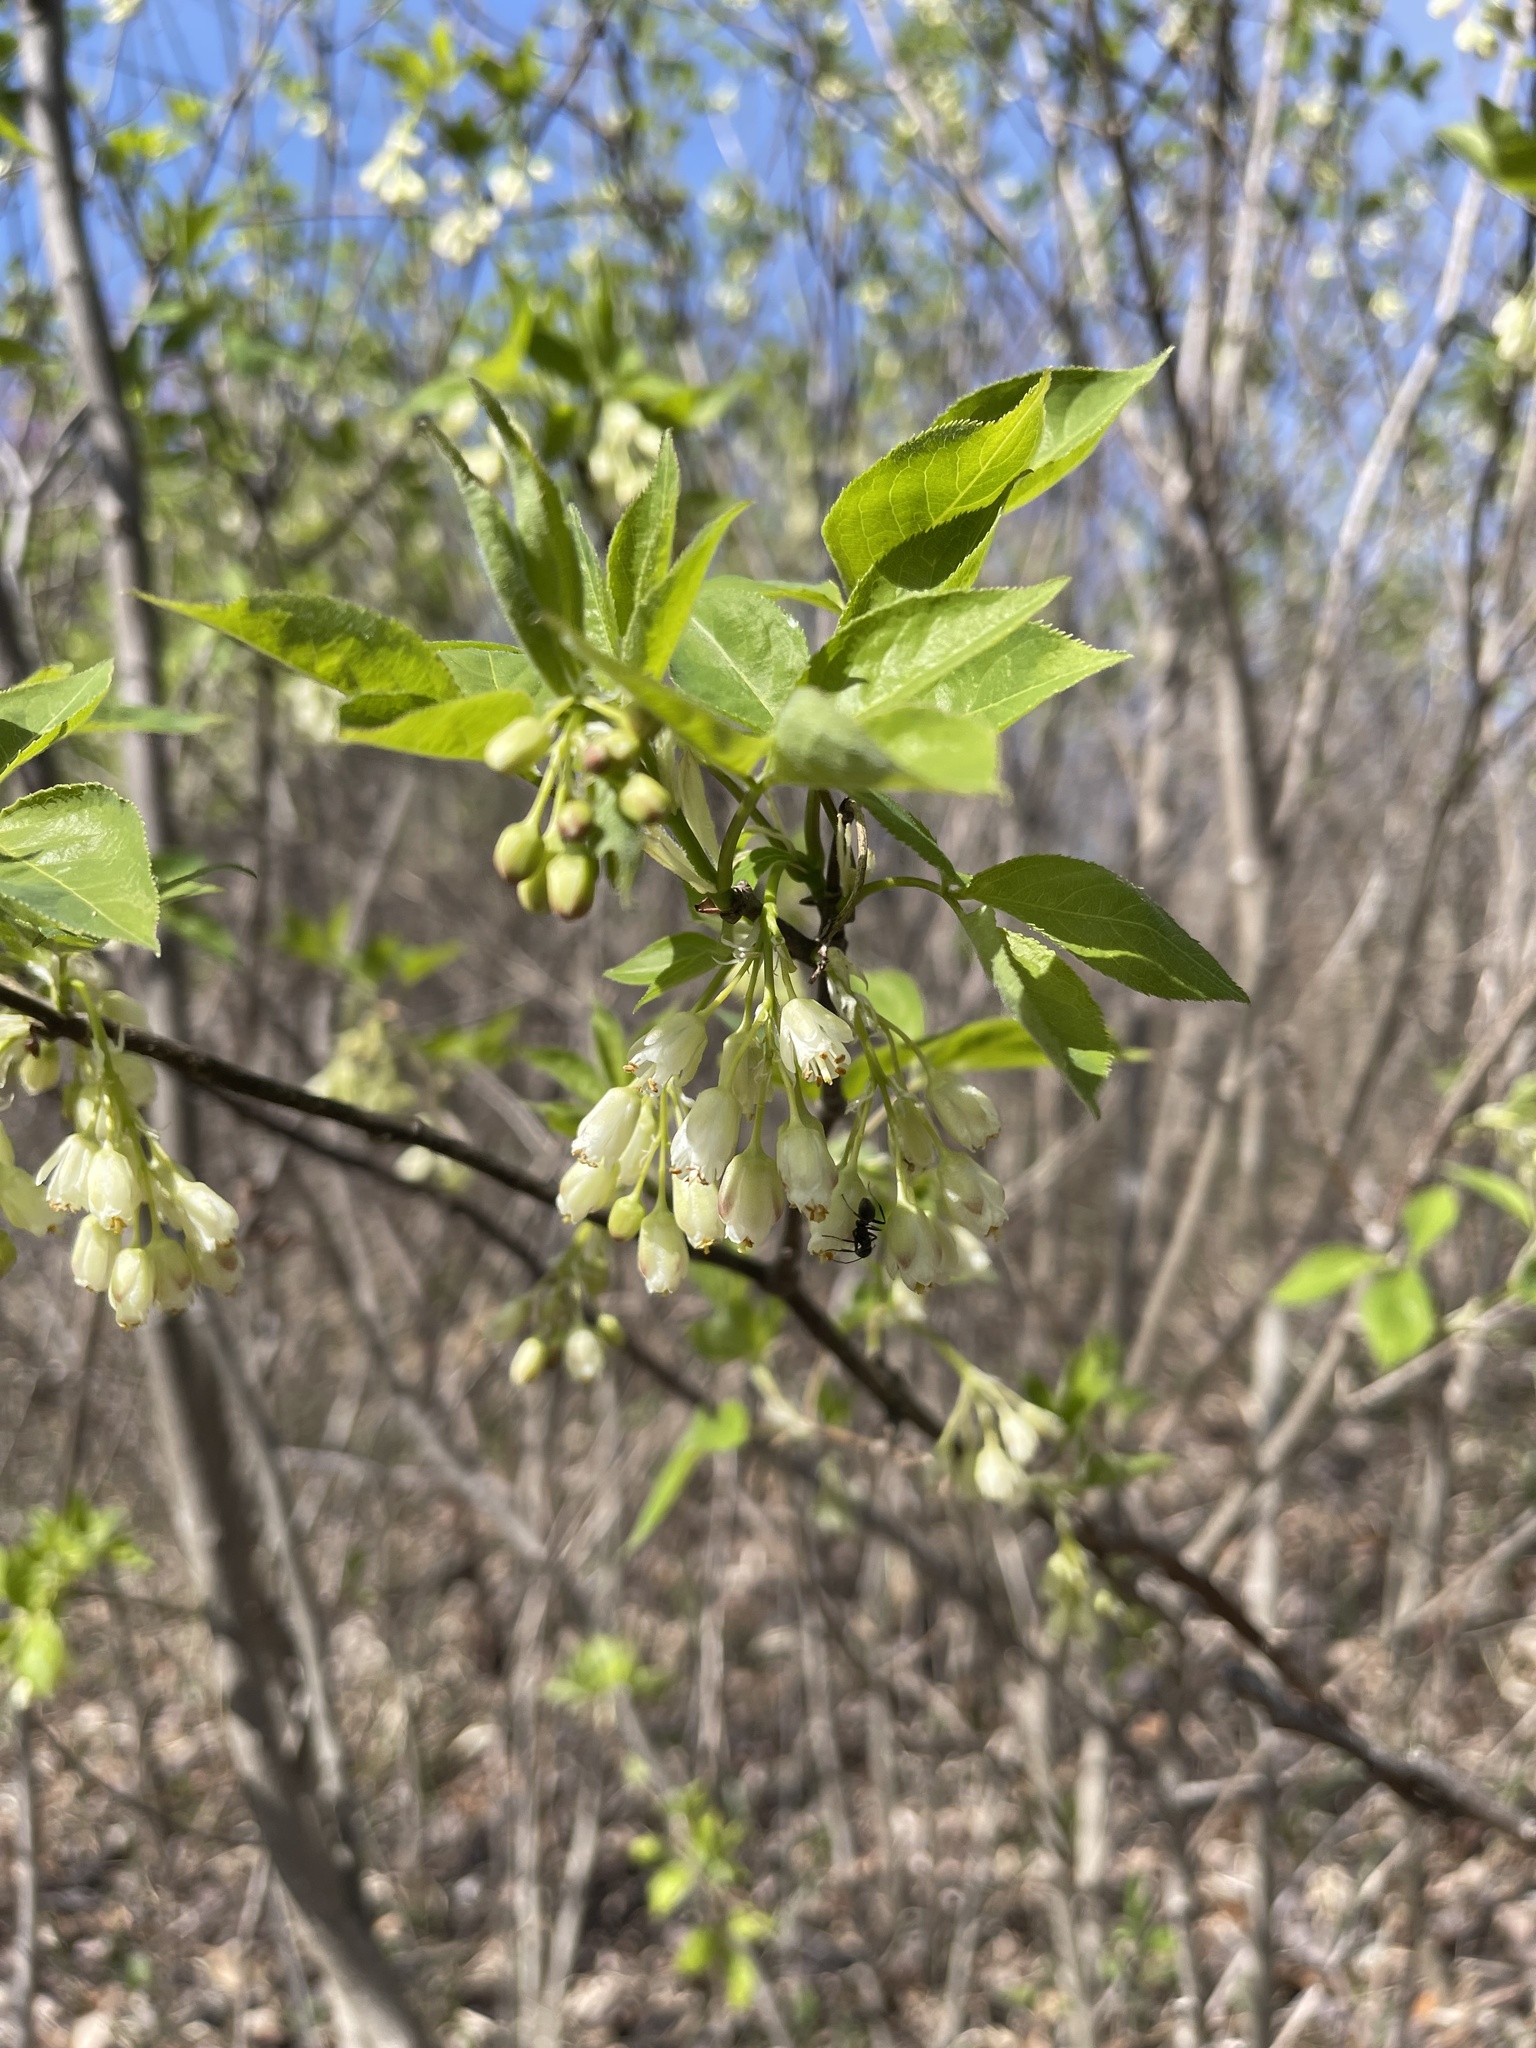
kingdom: Plantae
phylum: Tracheophyta
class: Magnoliopsida
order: Crossosomatales
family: Staphyleaceae
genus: Staphylea
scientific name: Staphylea trifolia
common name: American bladdernut
